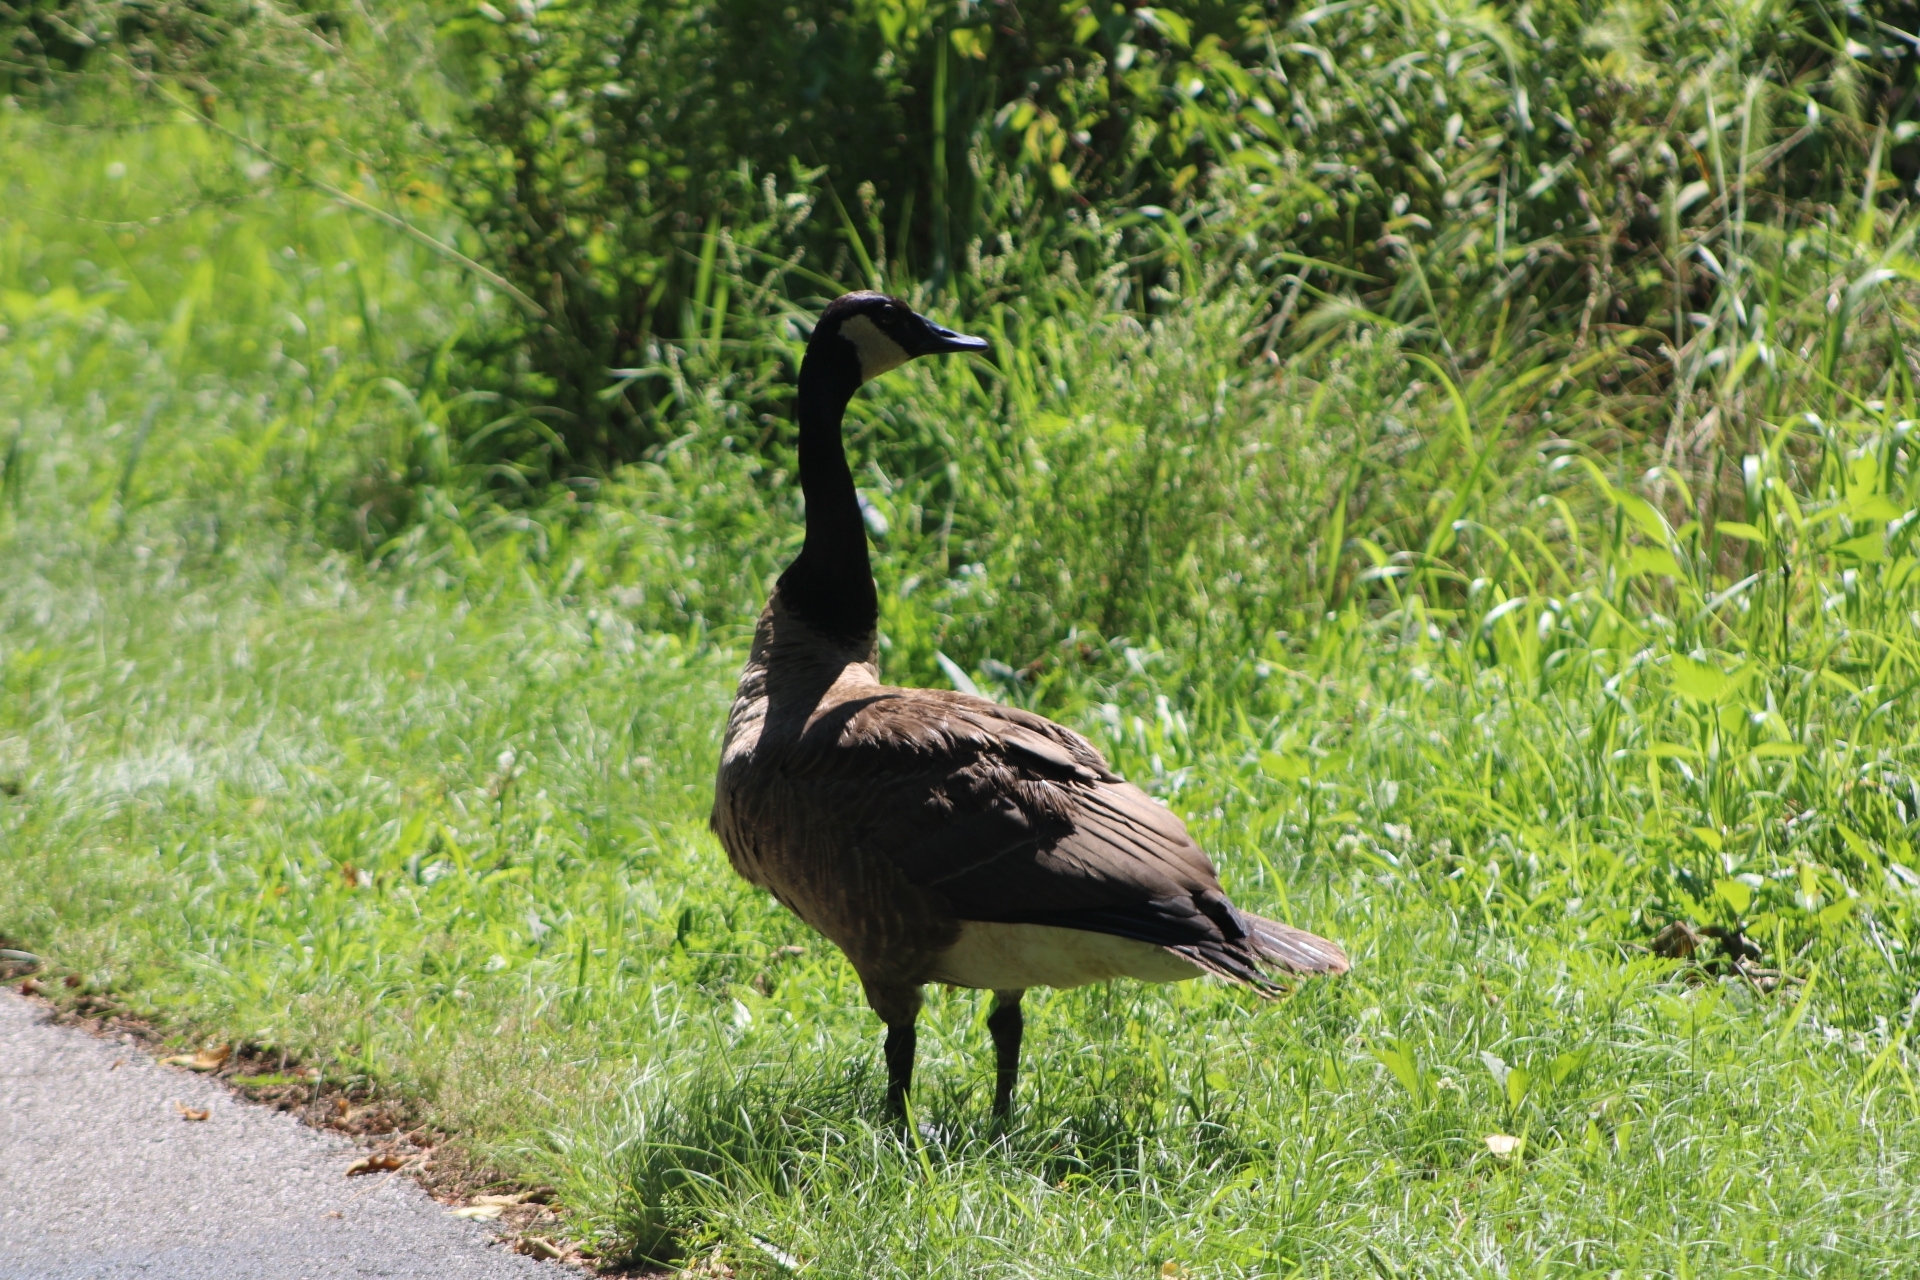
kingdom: Animalia
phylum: Chordata
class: Aves
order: Anseriformes
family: Anatidae
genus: Branta
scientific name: Branta canadensis
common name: Canada goose
